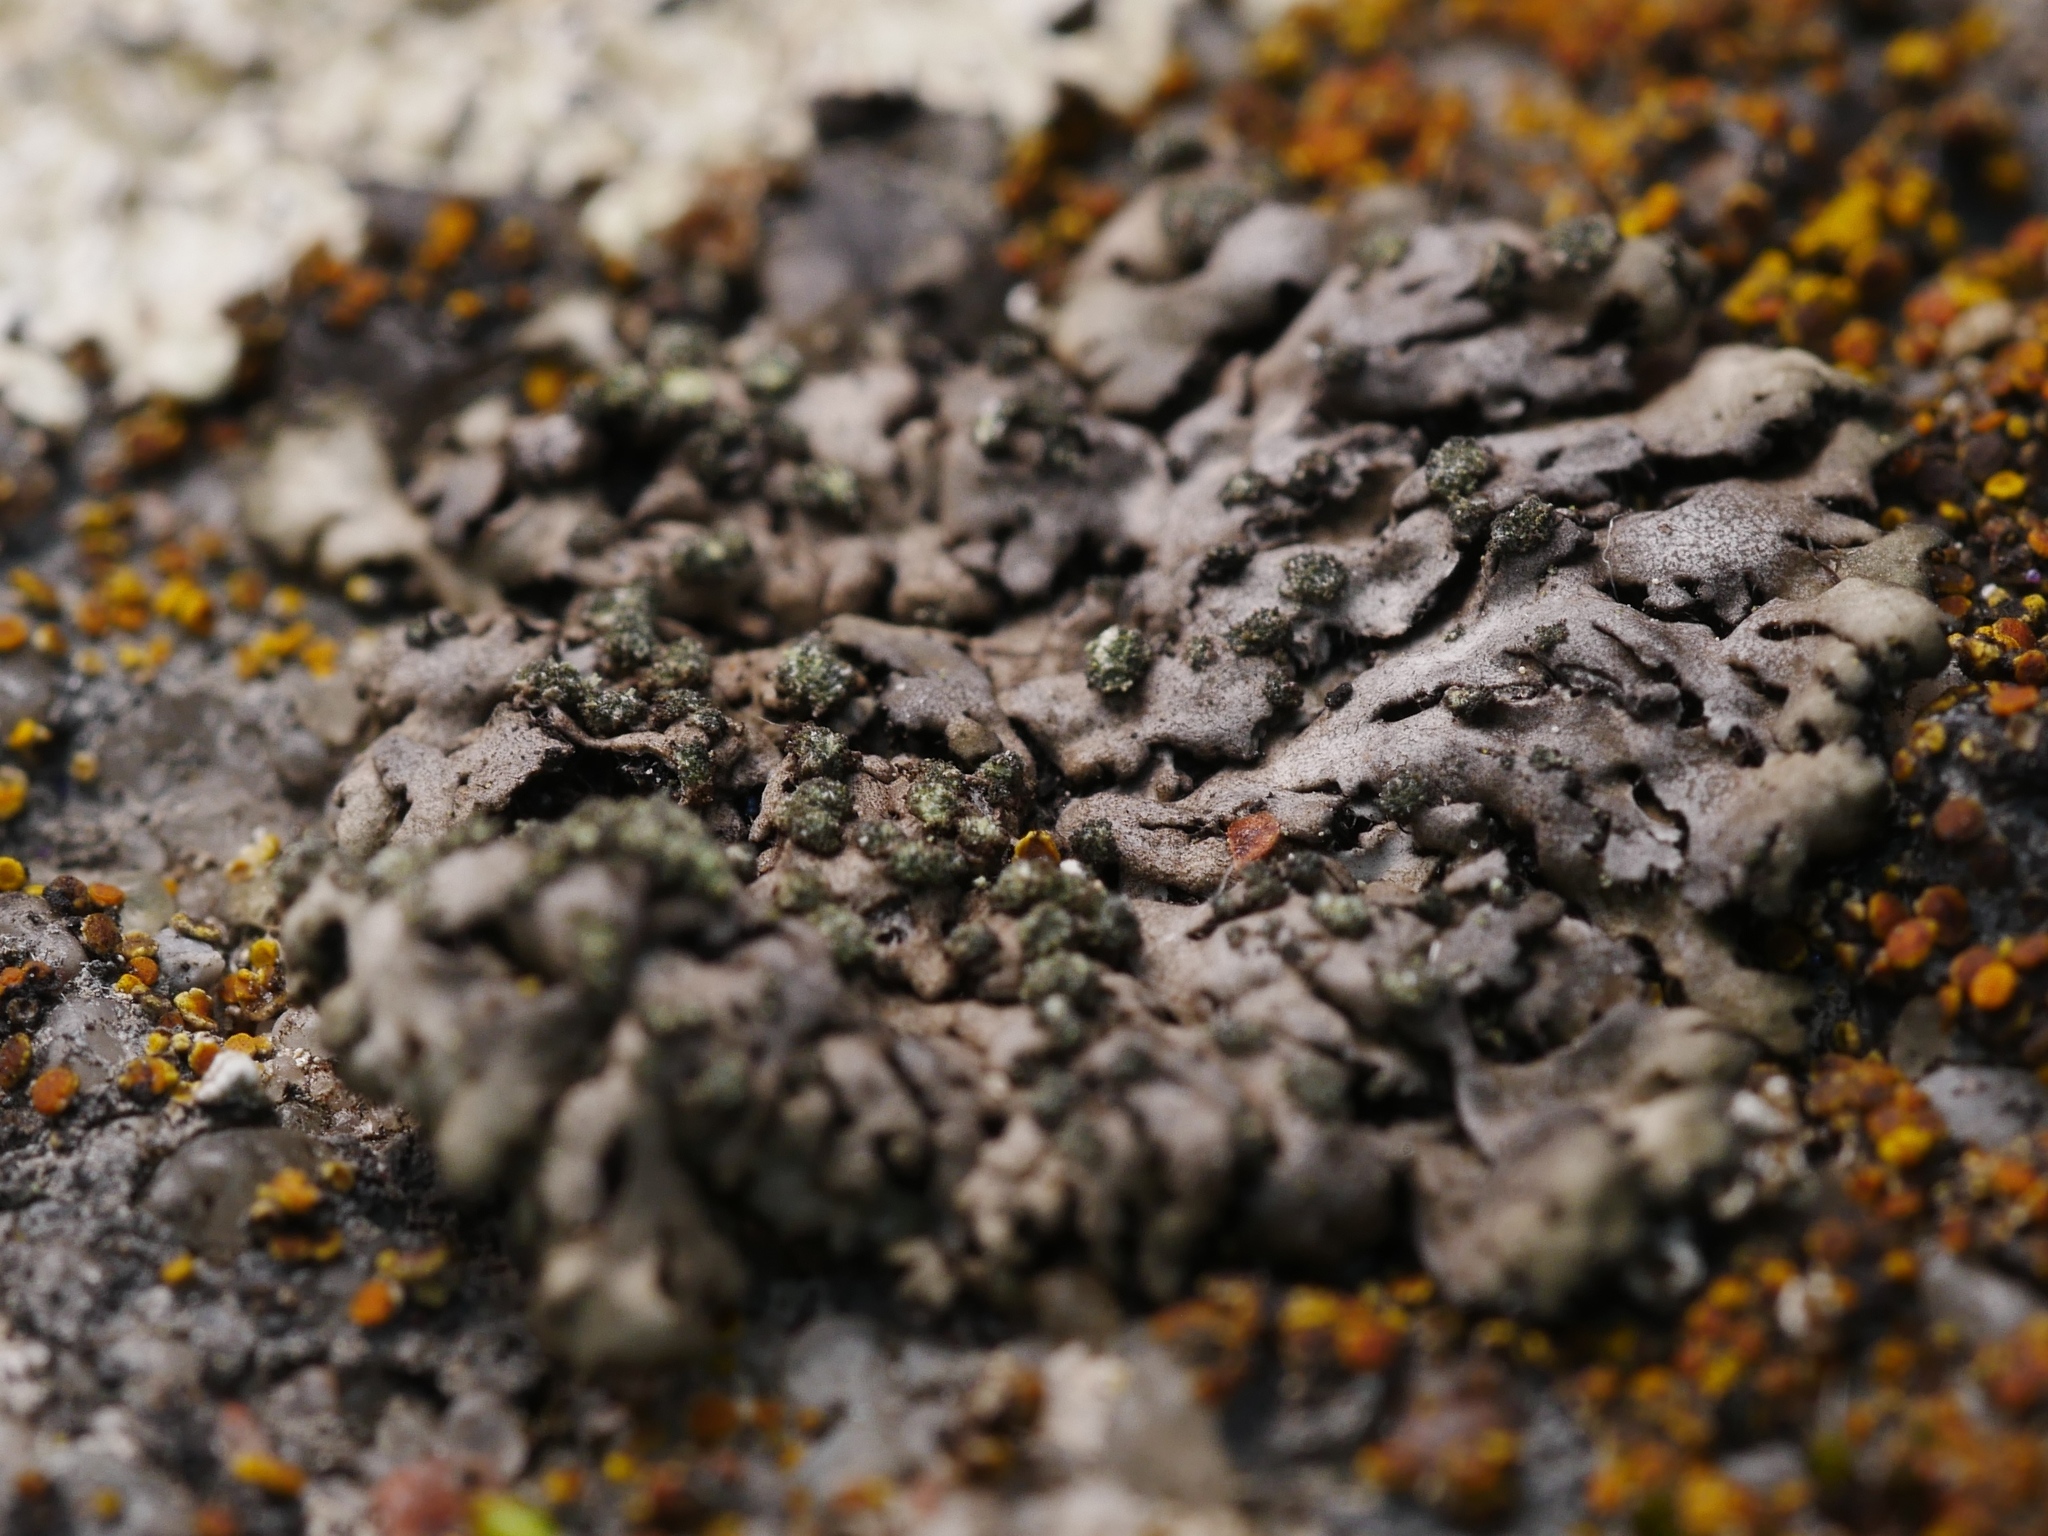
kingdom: Fungi
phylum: Ascomycota
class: Lecanoromycetes
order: Caliciales
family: Physciaceae
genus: Phaeophyscia
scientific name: Phaeophyscia orbicularis
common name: Mealy shadow lichen
